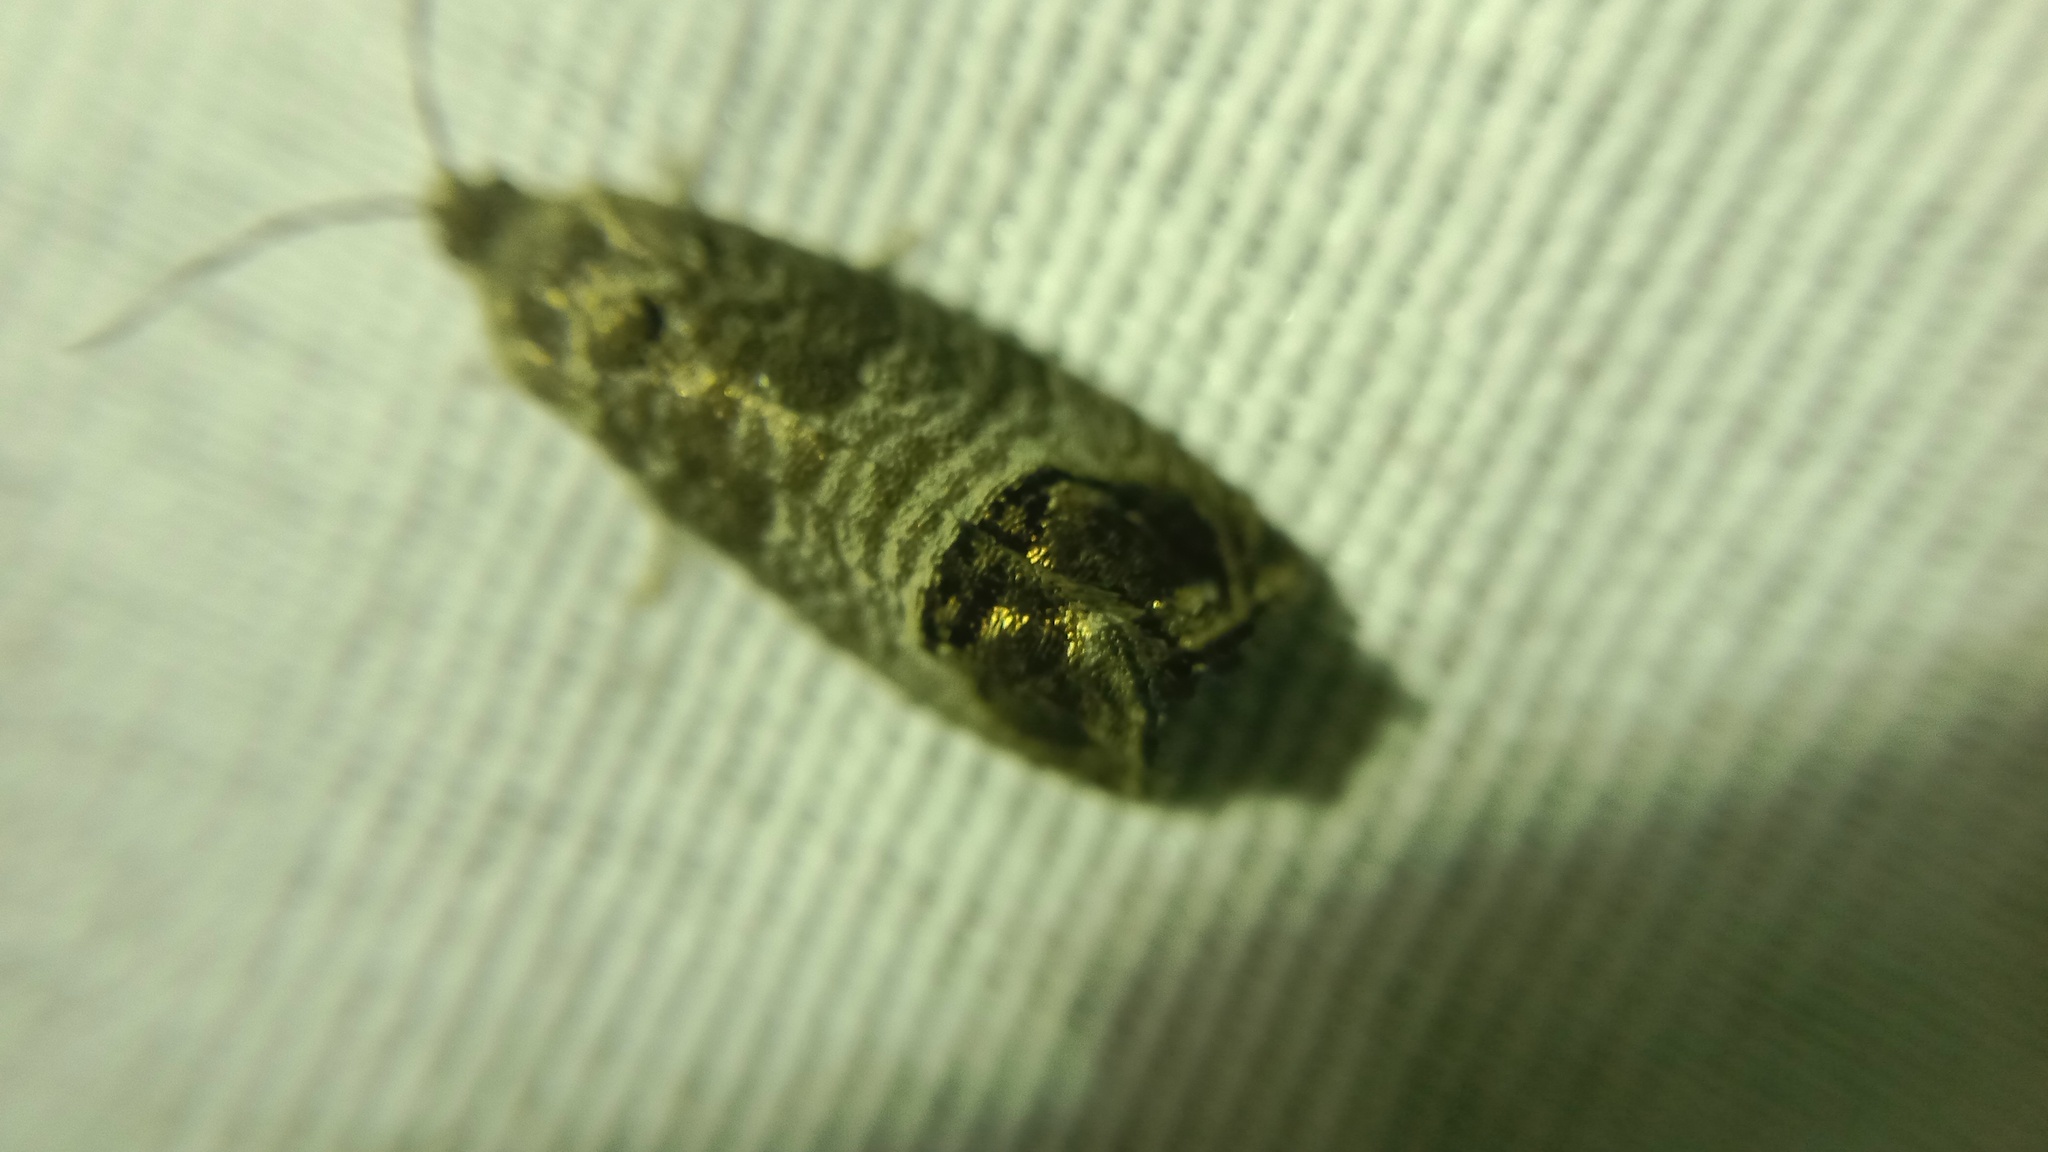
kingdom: Animalia
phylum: Arthropoda
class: Insecta
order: Lepidoptera
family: Tortricidae
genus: Cydia
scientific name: Cydia pomonella
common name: Codling moth
